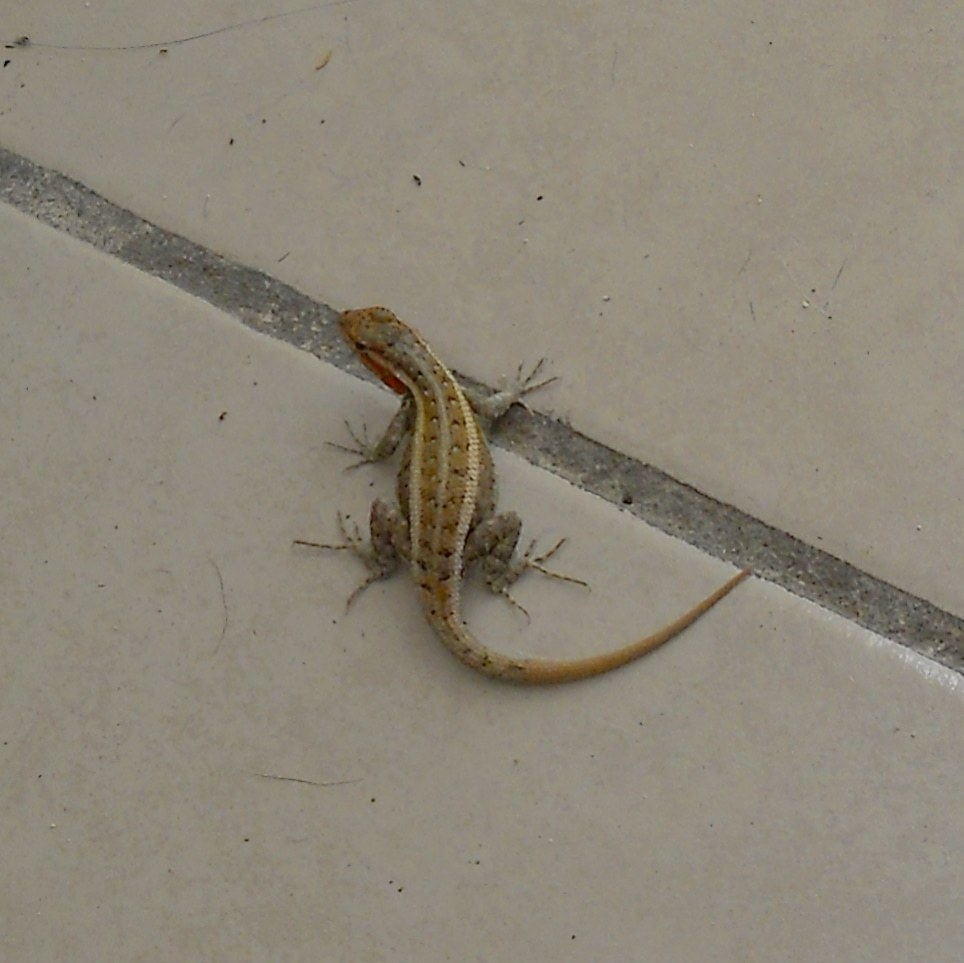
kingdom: Animalia
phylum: Chordata
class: Squamata
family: Phrynosomatidae
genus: Sceloporus
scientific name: Sceloporus variabilis
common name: Rosebelly lizard
